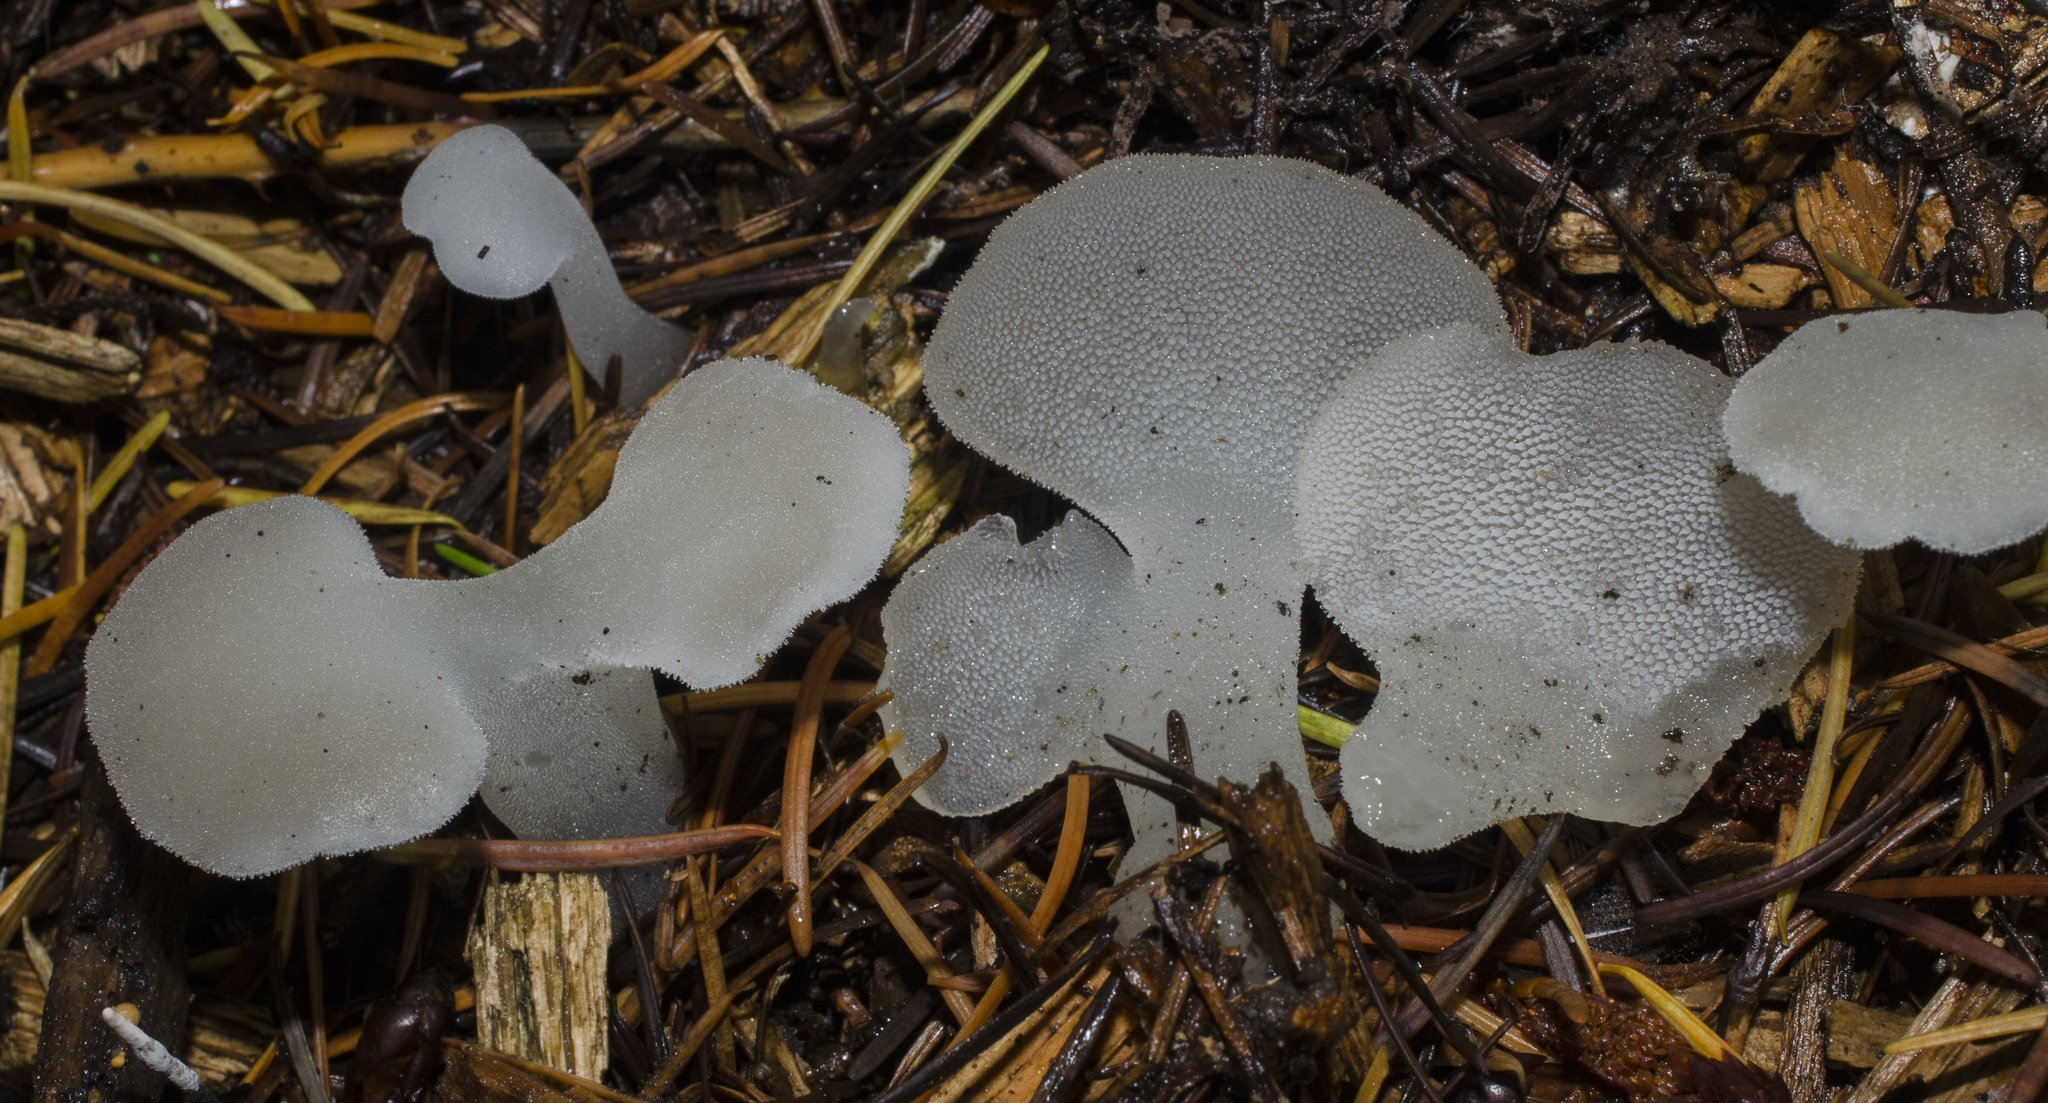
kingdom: Fungi
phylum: Basidiomycota
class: Agaricomycetes
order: Auriculariales
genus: Pseudohydnum
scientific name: Pseudohydnum gelatinosum
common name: Jelly tongue
